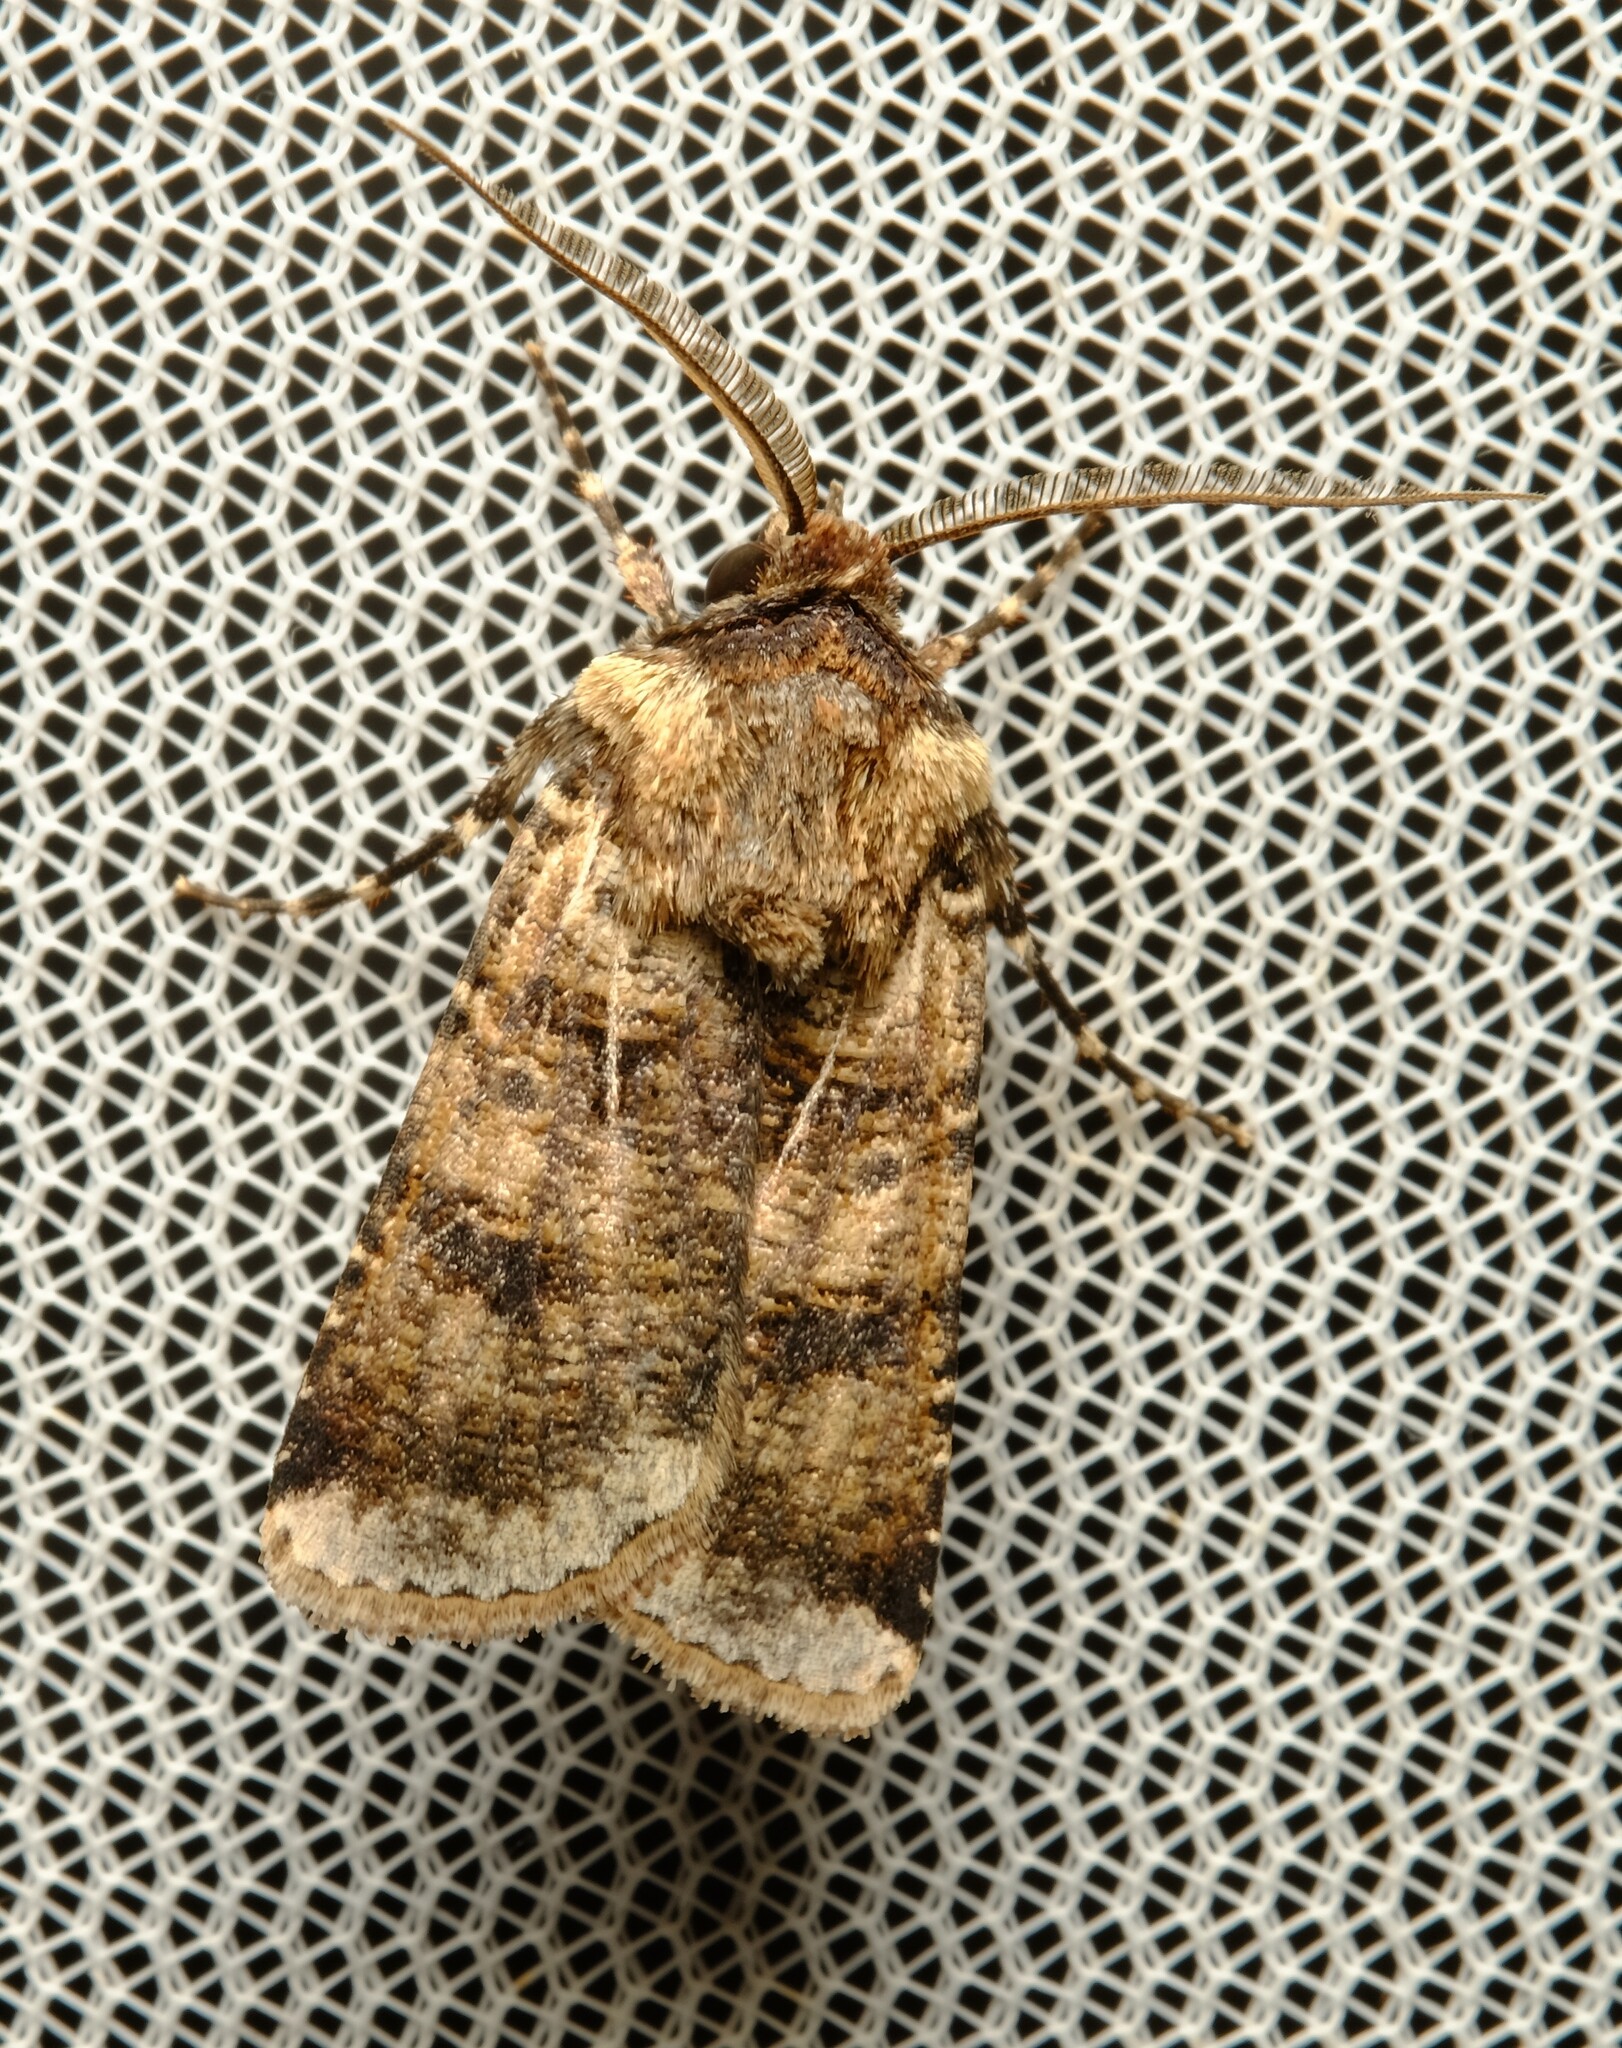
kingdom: Animalia
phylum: Arthropoda
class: Insecta
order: Lepidoptera
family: Noctuidae
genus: Agrotis
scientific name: Agrotis porphyricollis
